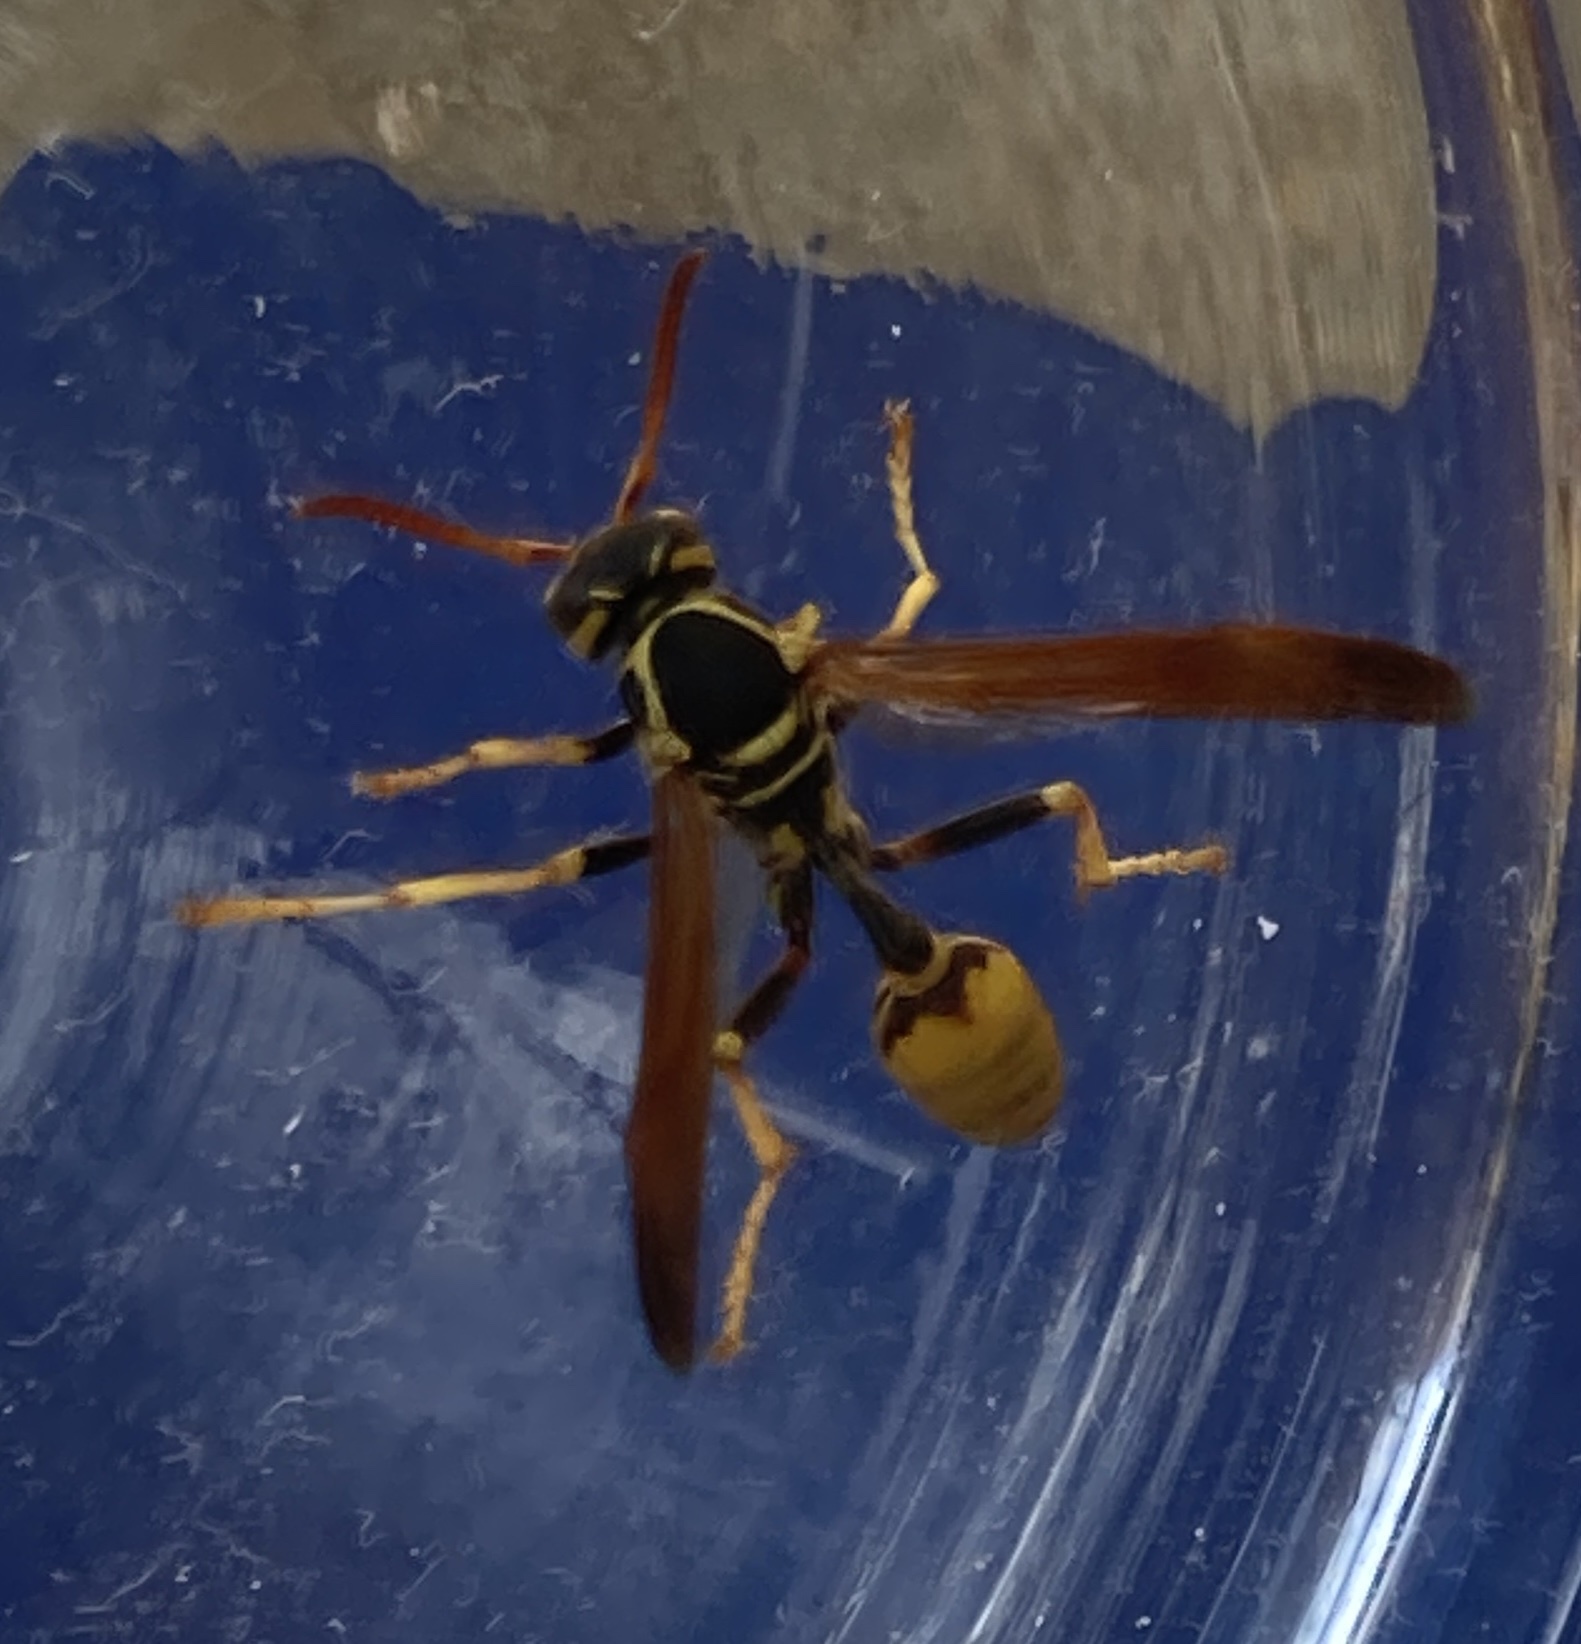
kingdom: Animalia
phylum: Arthropoda
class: Insecta
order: Hymenoptera
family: Vespidae
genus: Mischocyttarus
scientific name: Mischocyttarus flavitarsis
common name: Wasp
